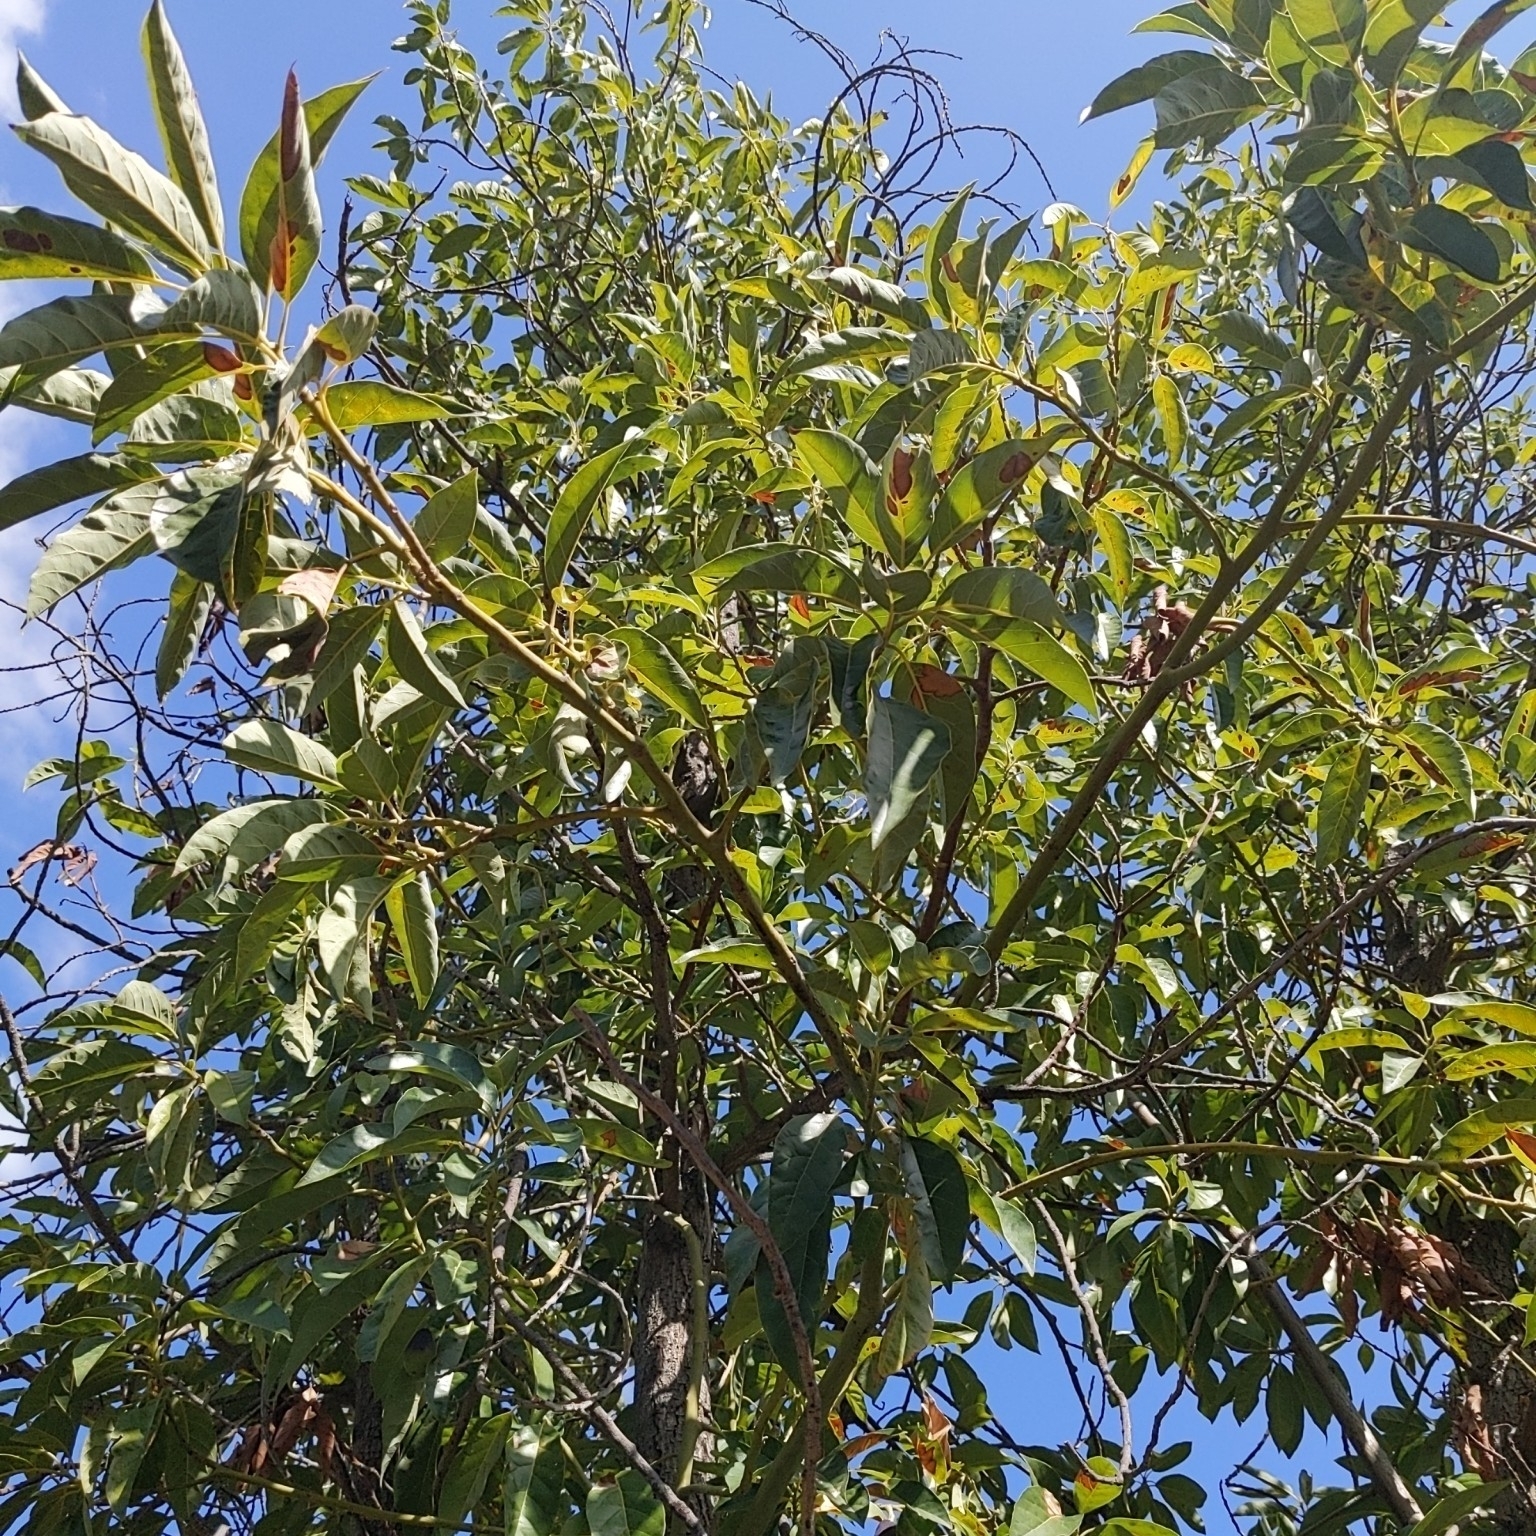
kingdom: Plantae
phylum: Tracheophyta
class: Magnoliopsida
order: Laurales
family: Lauraceae
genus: Persea
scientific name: Persea americana
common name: Avocado
